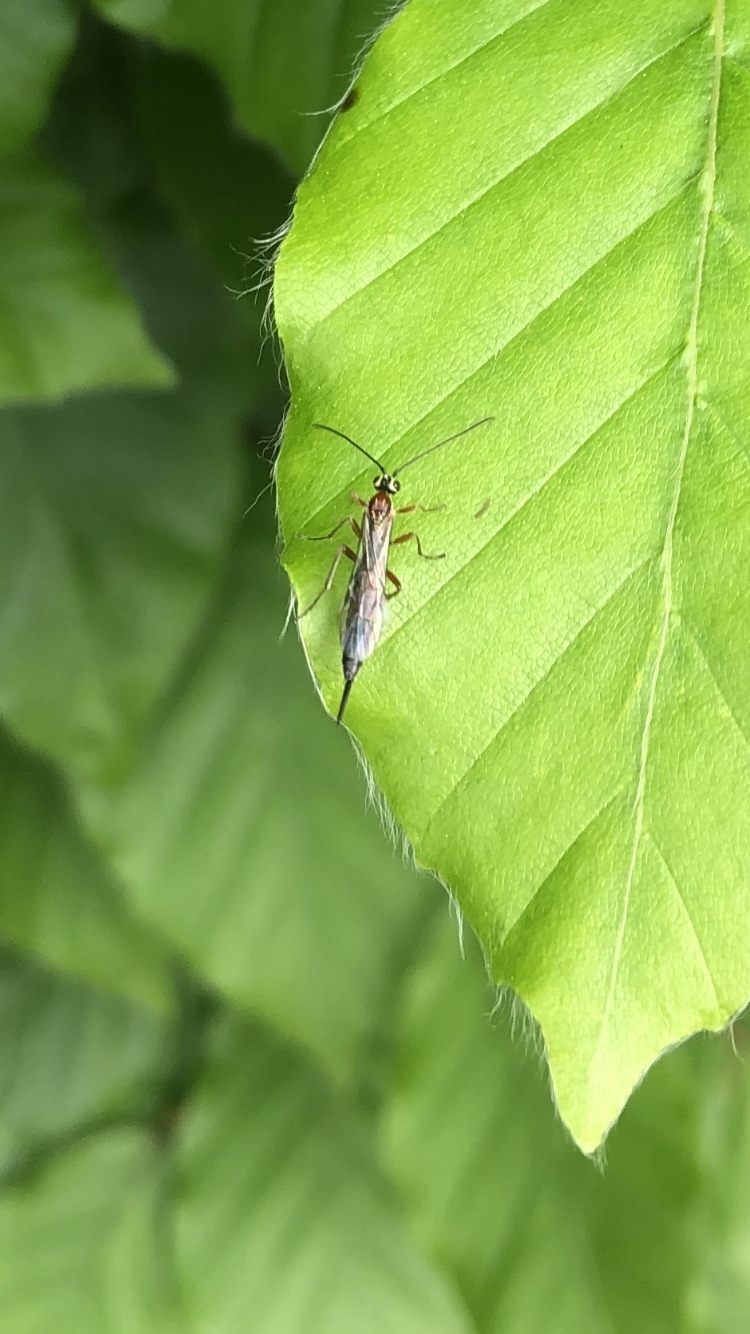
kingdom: Animalia
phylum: Arthropoda
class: Insecta
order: Hymenoptera
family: Ichneumonidae
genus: Tromatobia
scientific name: Tromatobia lineatoria
